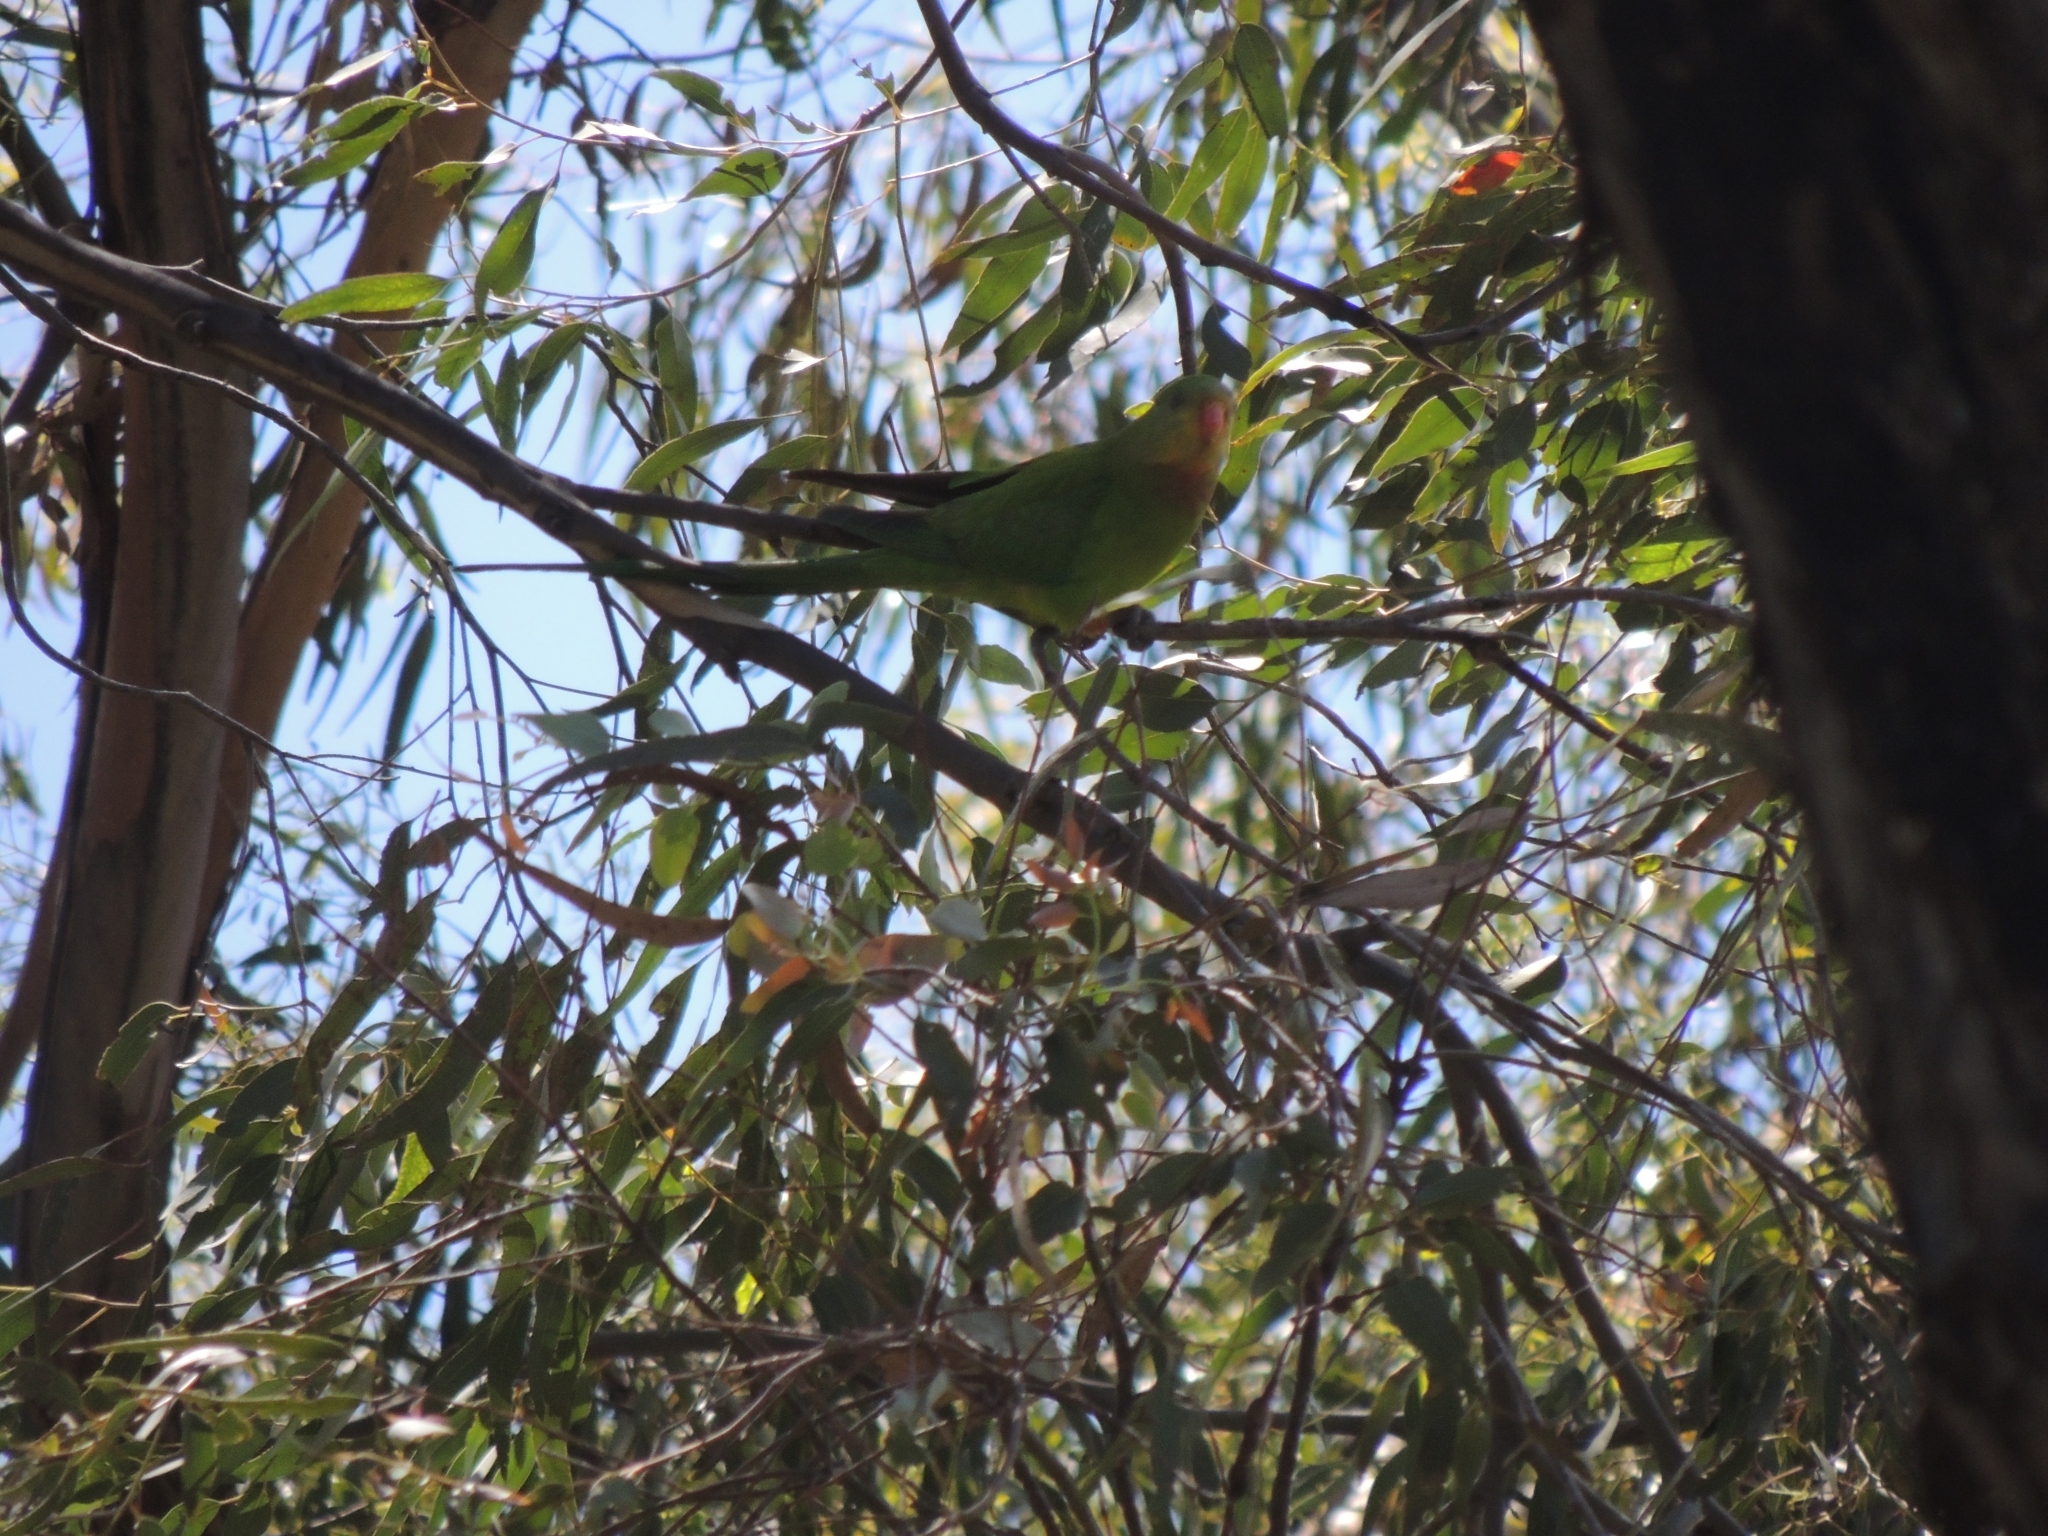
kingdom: Animalia
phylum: Chordata
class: Aves
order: Psittaciformes
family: Psittacidae
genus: Polytelis
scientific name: Polytelis swainsonii
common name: Superb parrot
